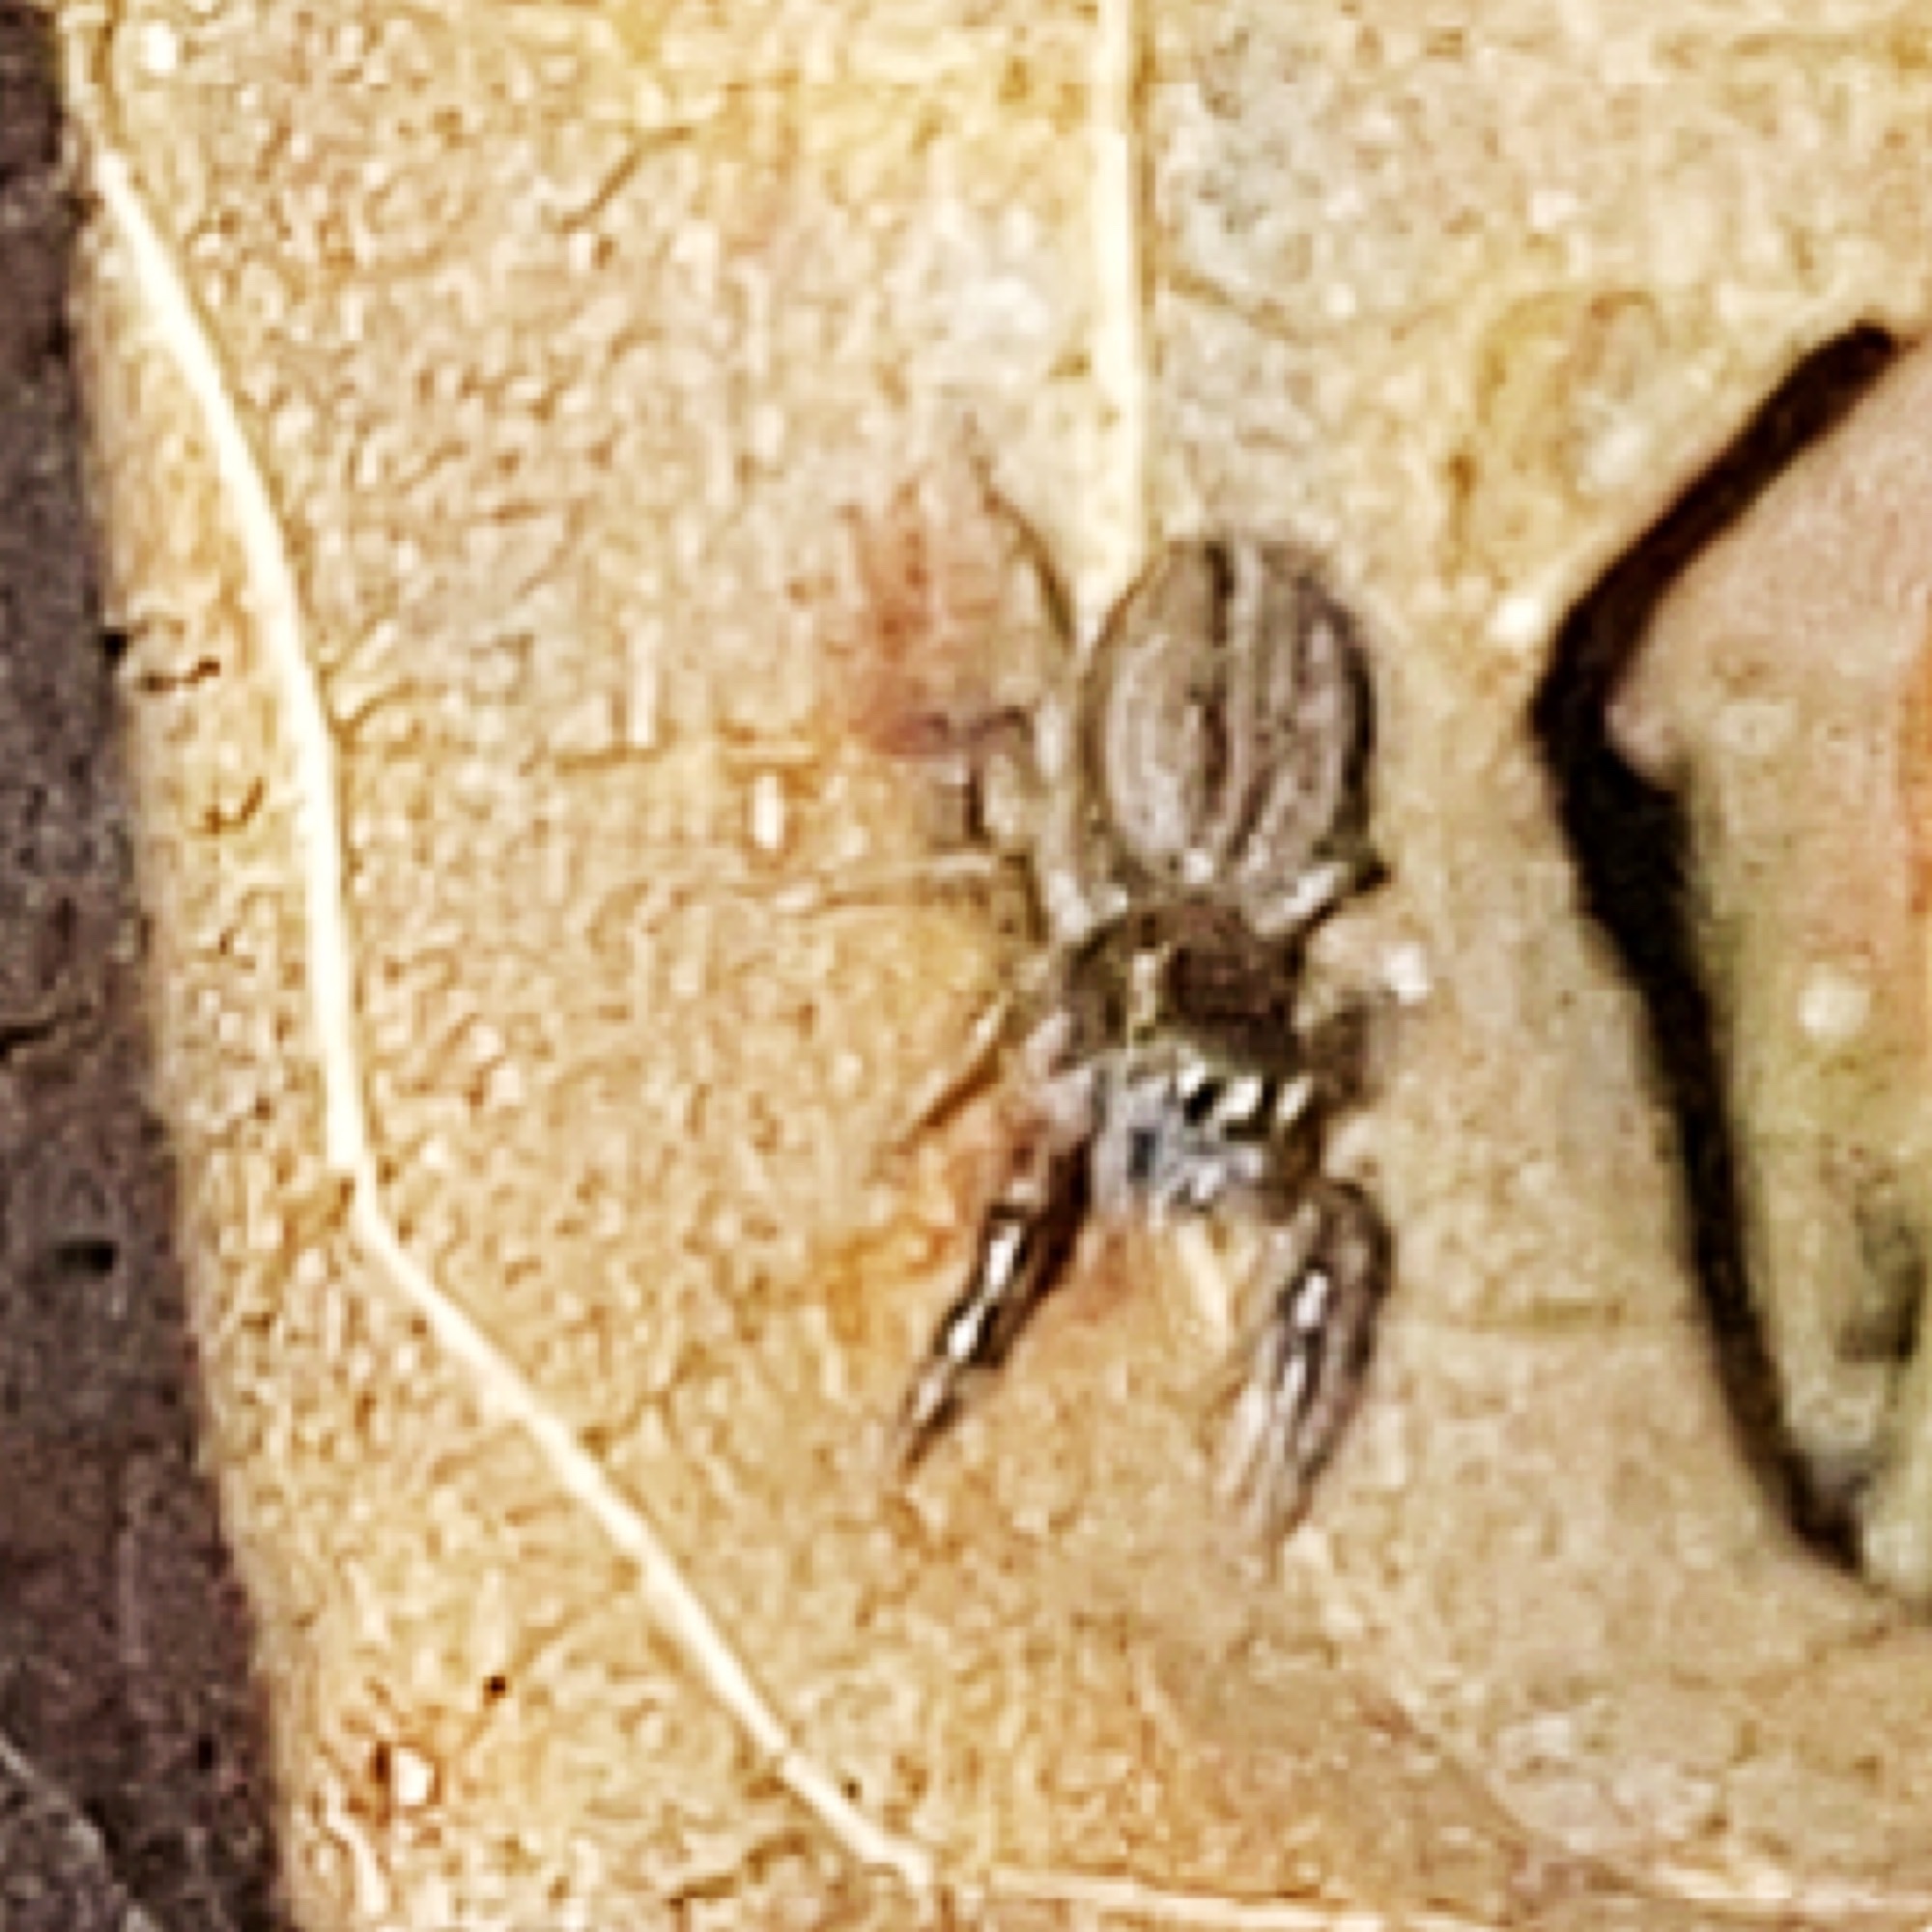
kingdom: Animalia
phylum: Arthropoda
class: Arachnida
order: Araneae
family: Salticidae
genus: Marpissa
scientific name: Marpissa lineata
